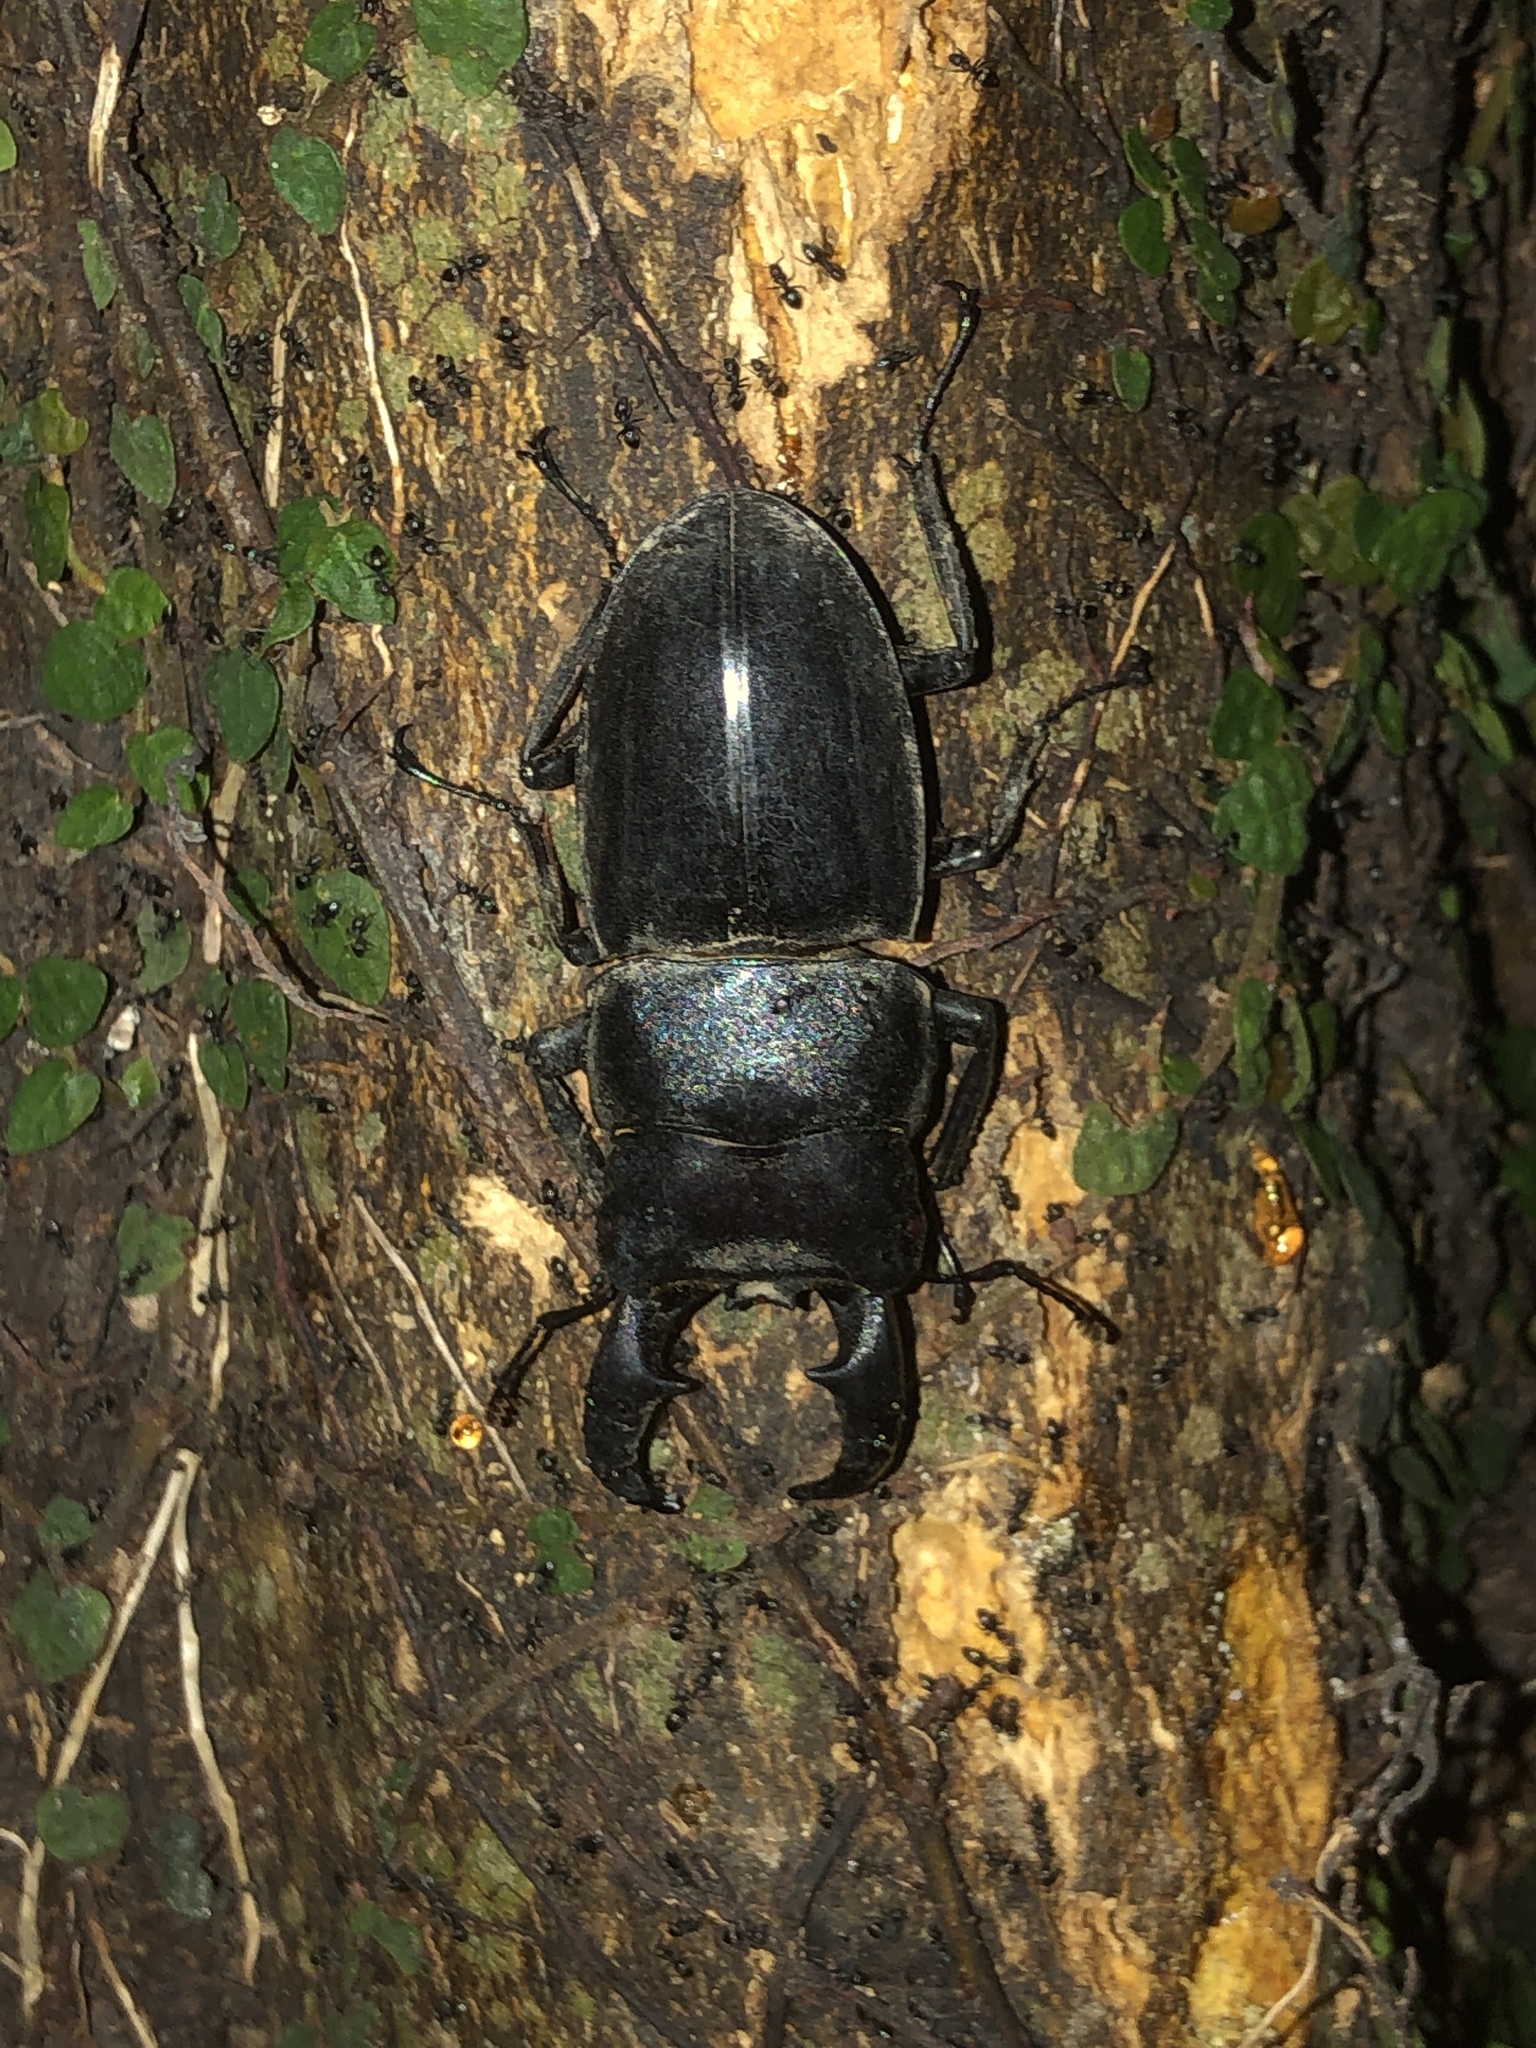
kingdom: Animalia
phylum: Arthropoda
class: Insecta
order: Coleoptera
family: Lucanidae
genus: Serrognathus
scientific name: Serrognathus titanus
